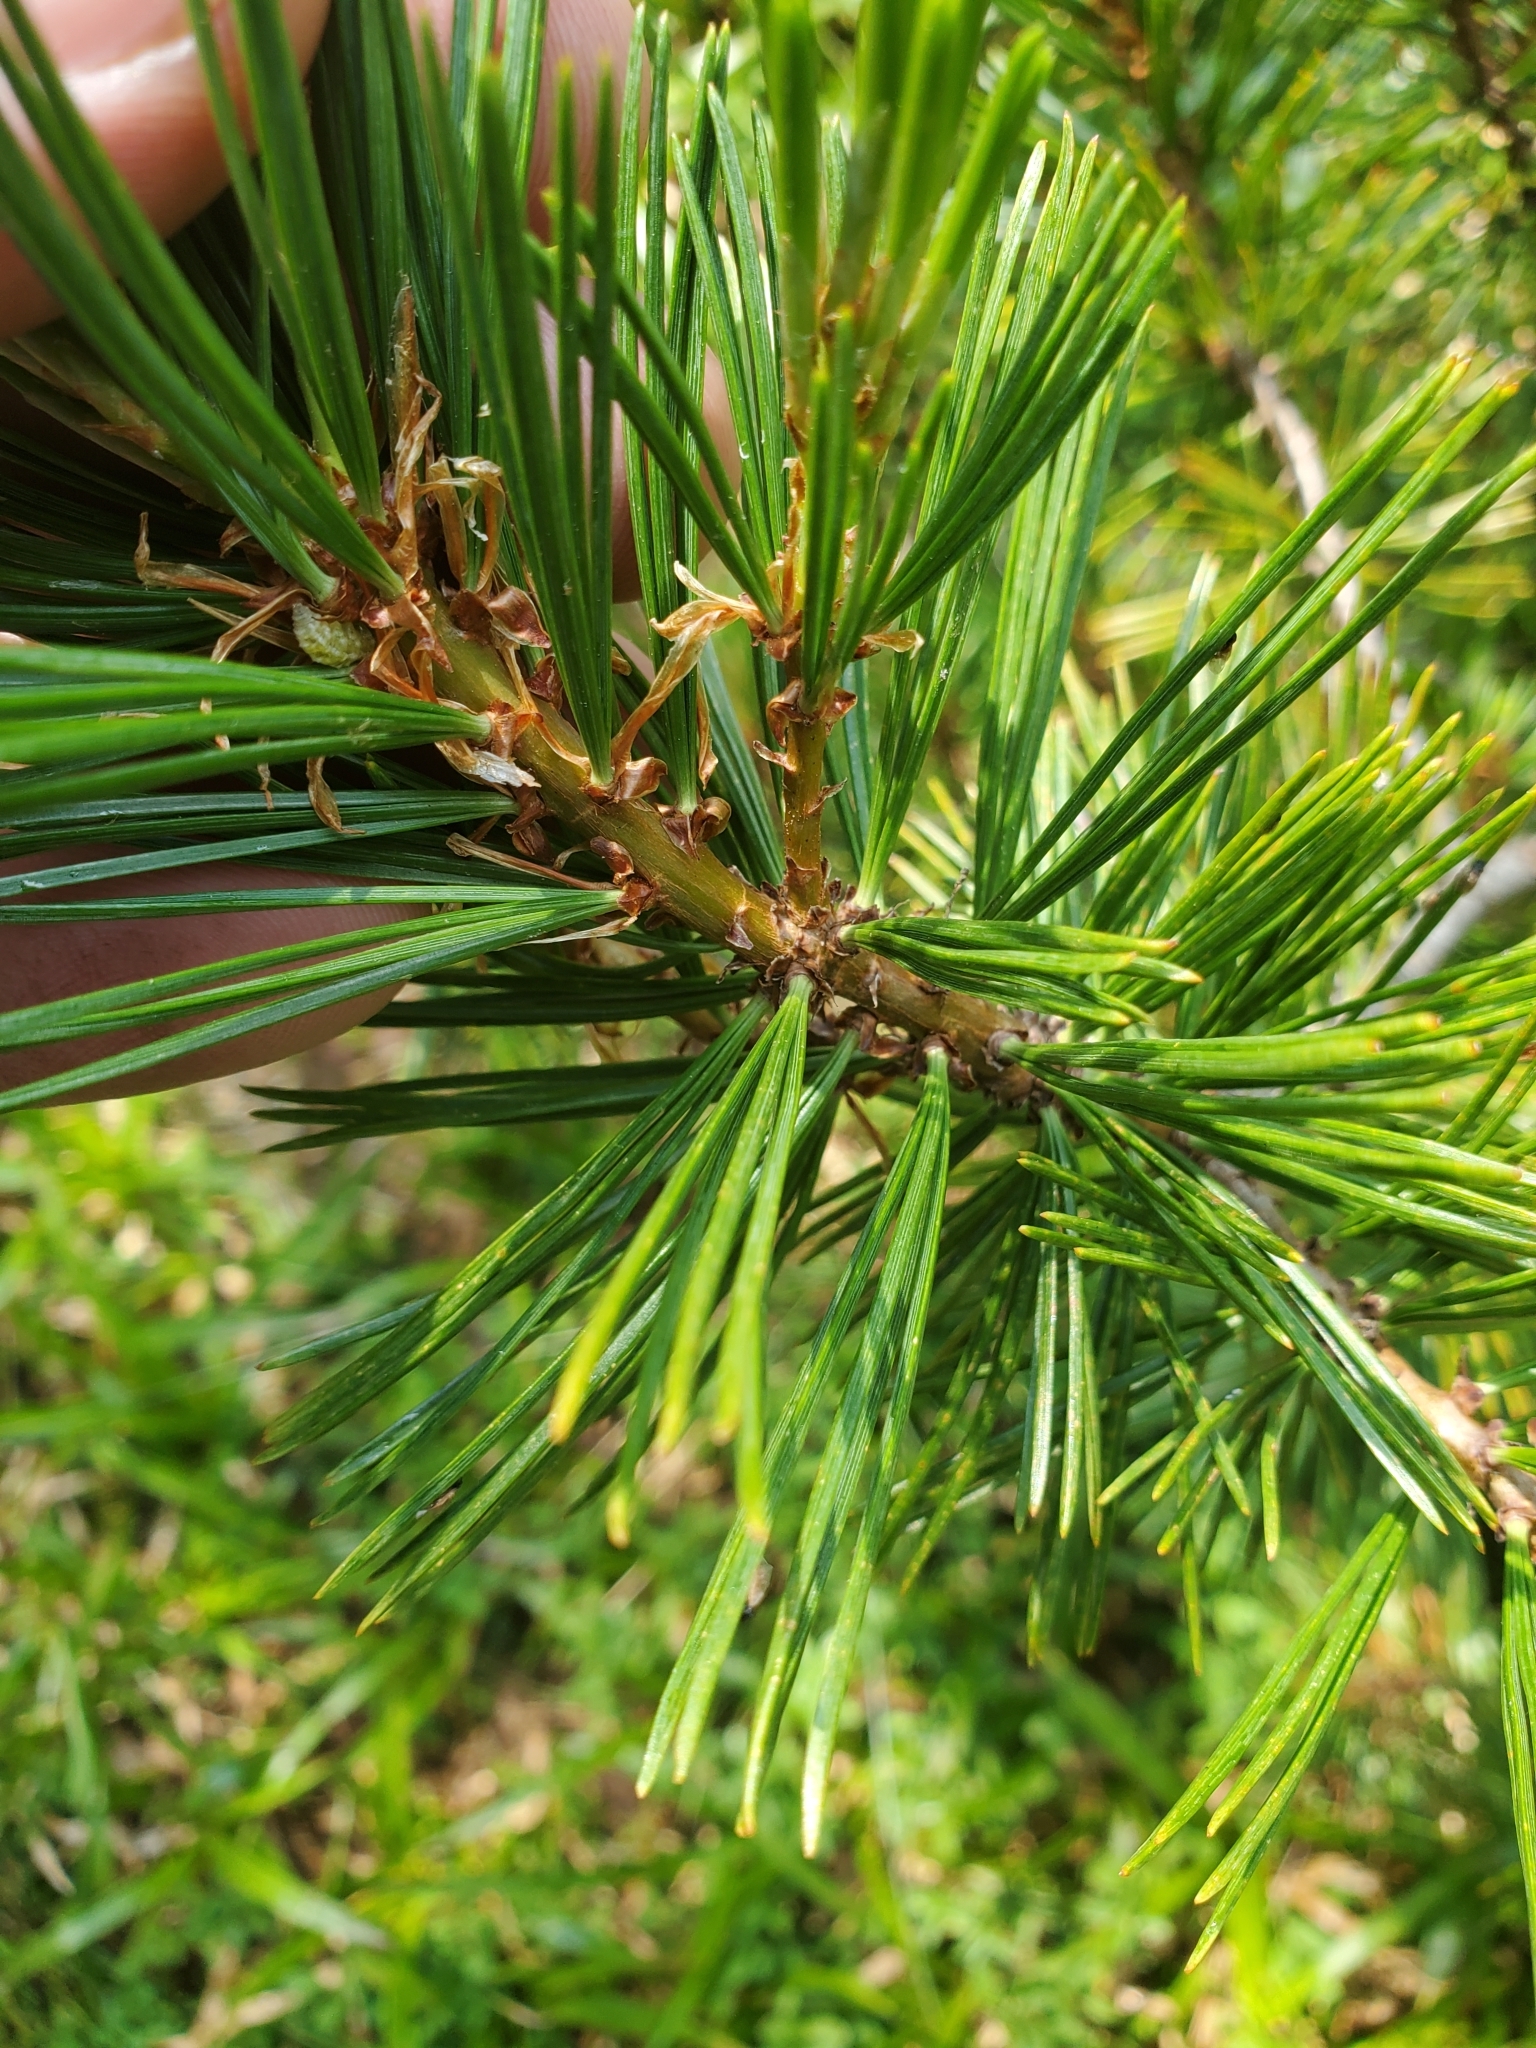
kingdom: Plantae
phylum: Tracheophyta
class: Pinopsida
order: Pinales
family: Pinaceae
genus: Pinus
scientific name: Pinus albicaulis
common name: Whitebark pine
